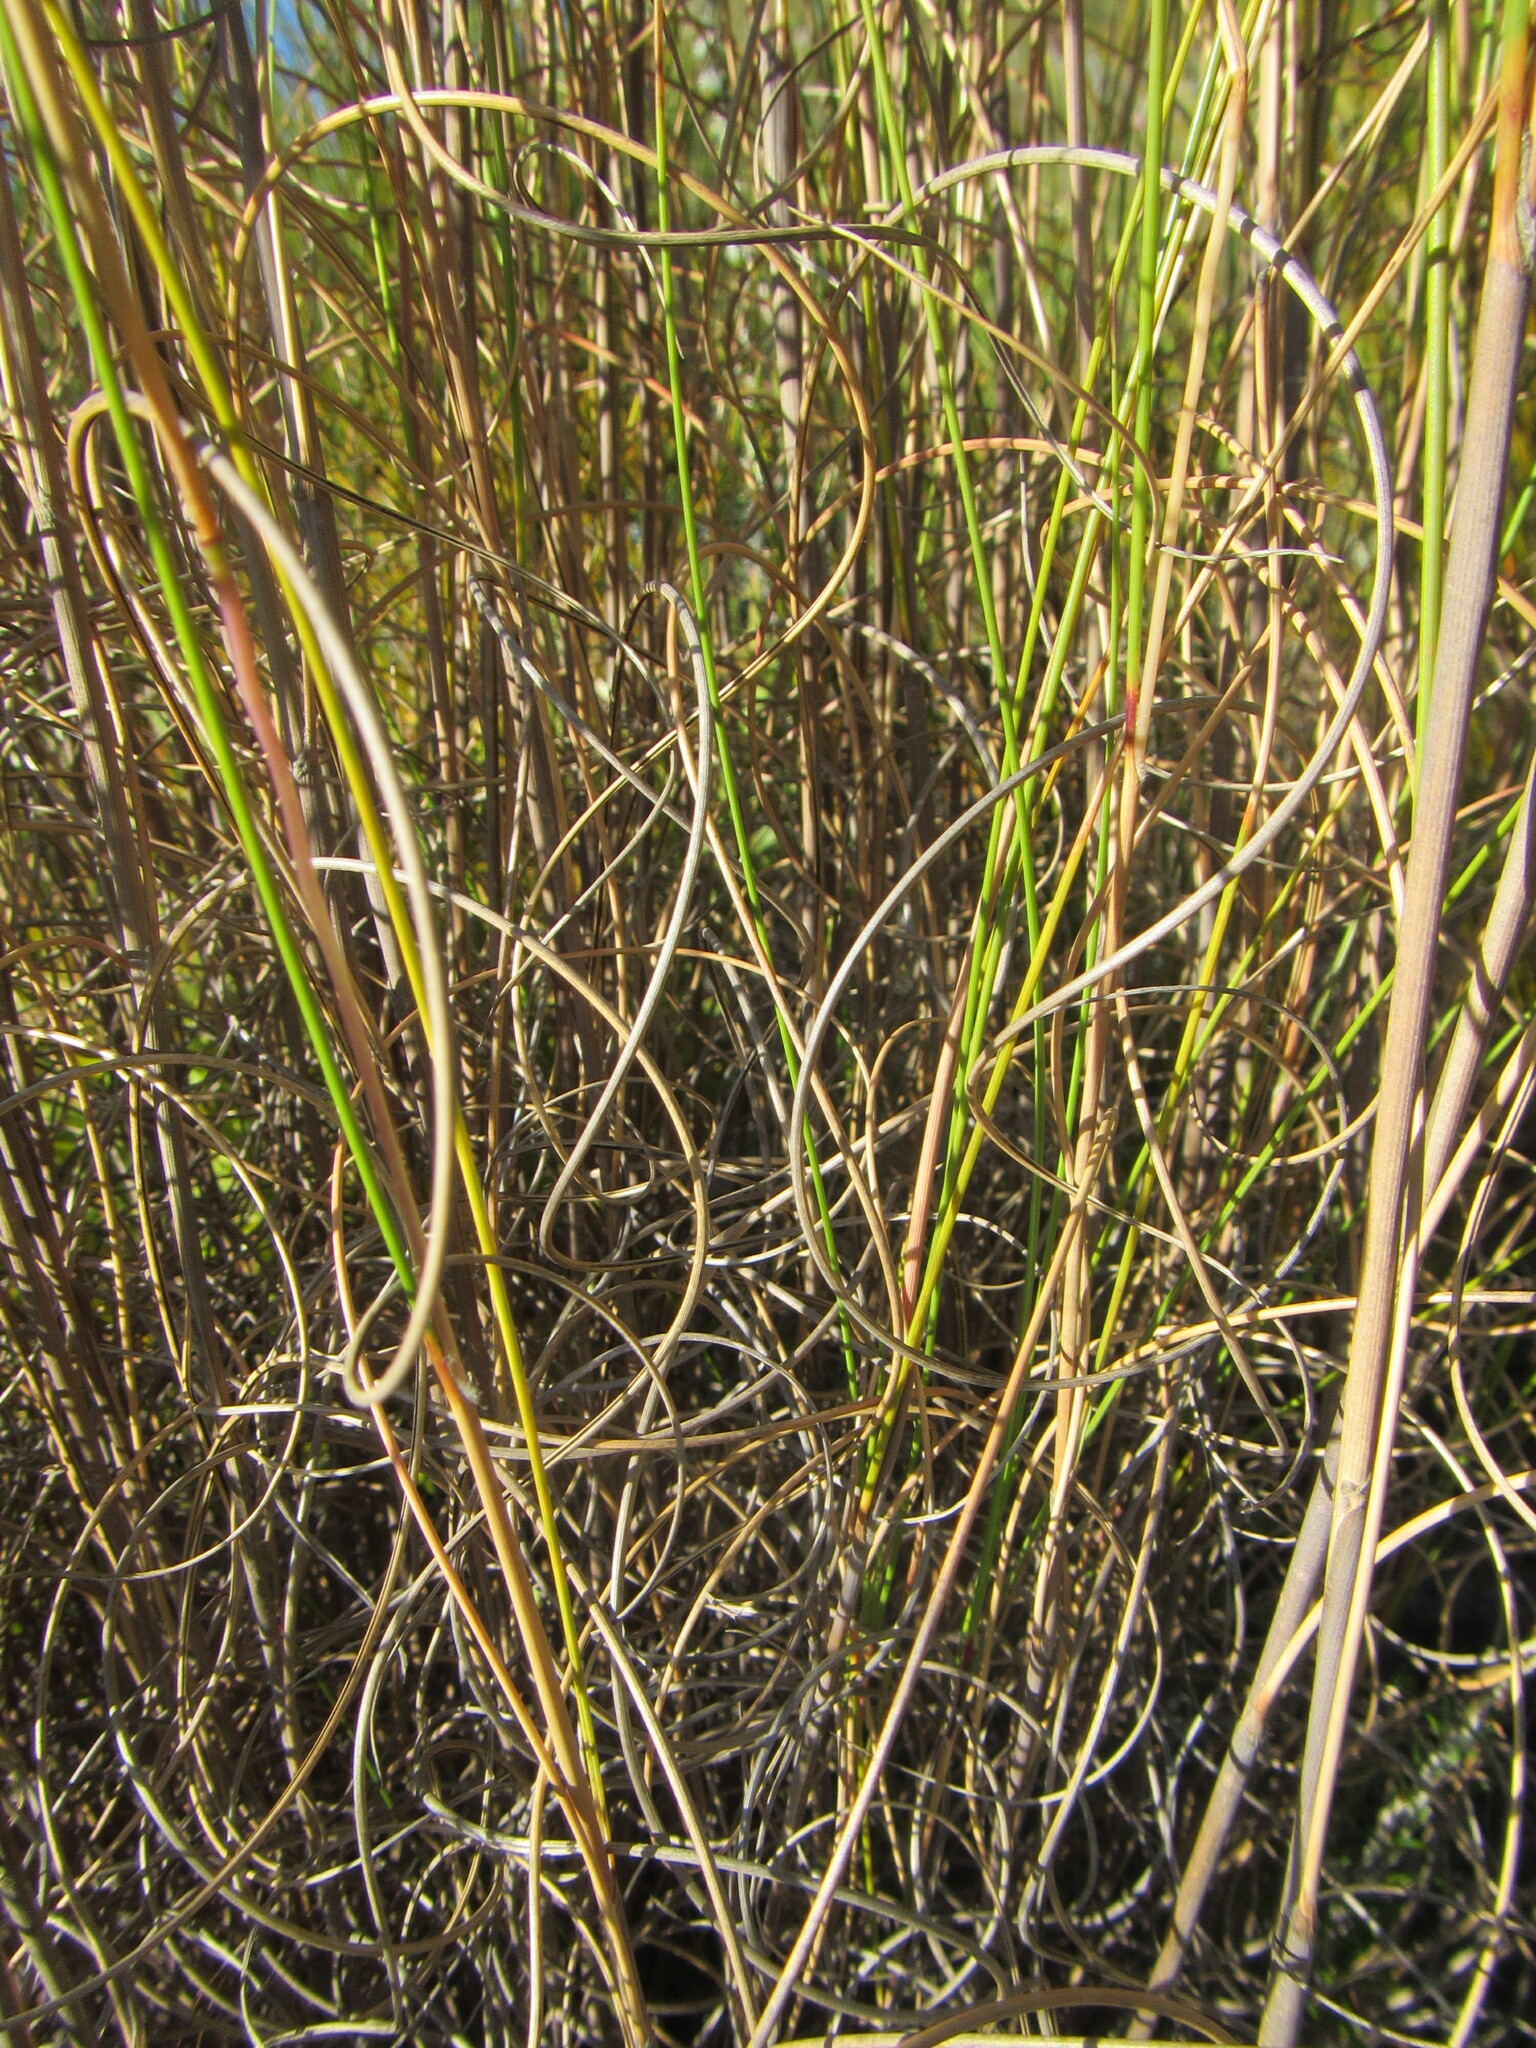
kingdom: Plantae
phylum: Tracheophyta
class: Liliopsida
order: Poales
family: Poaceae
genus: Pentameris
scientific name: Pentameris macrocalycina
